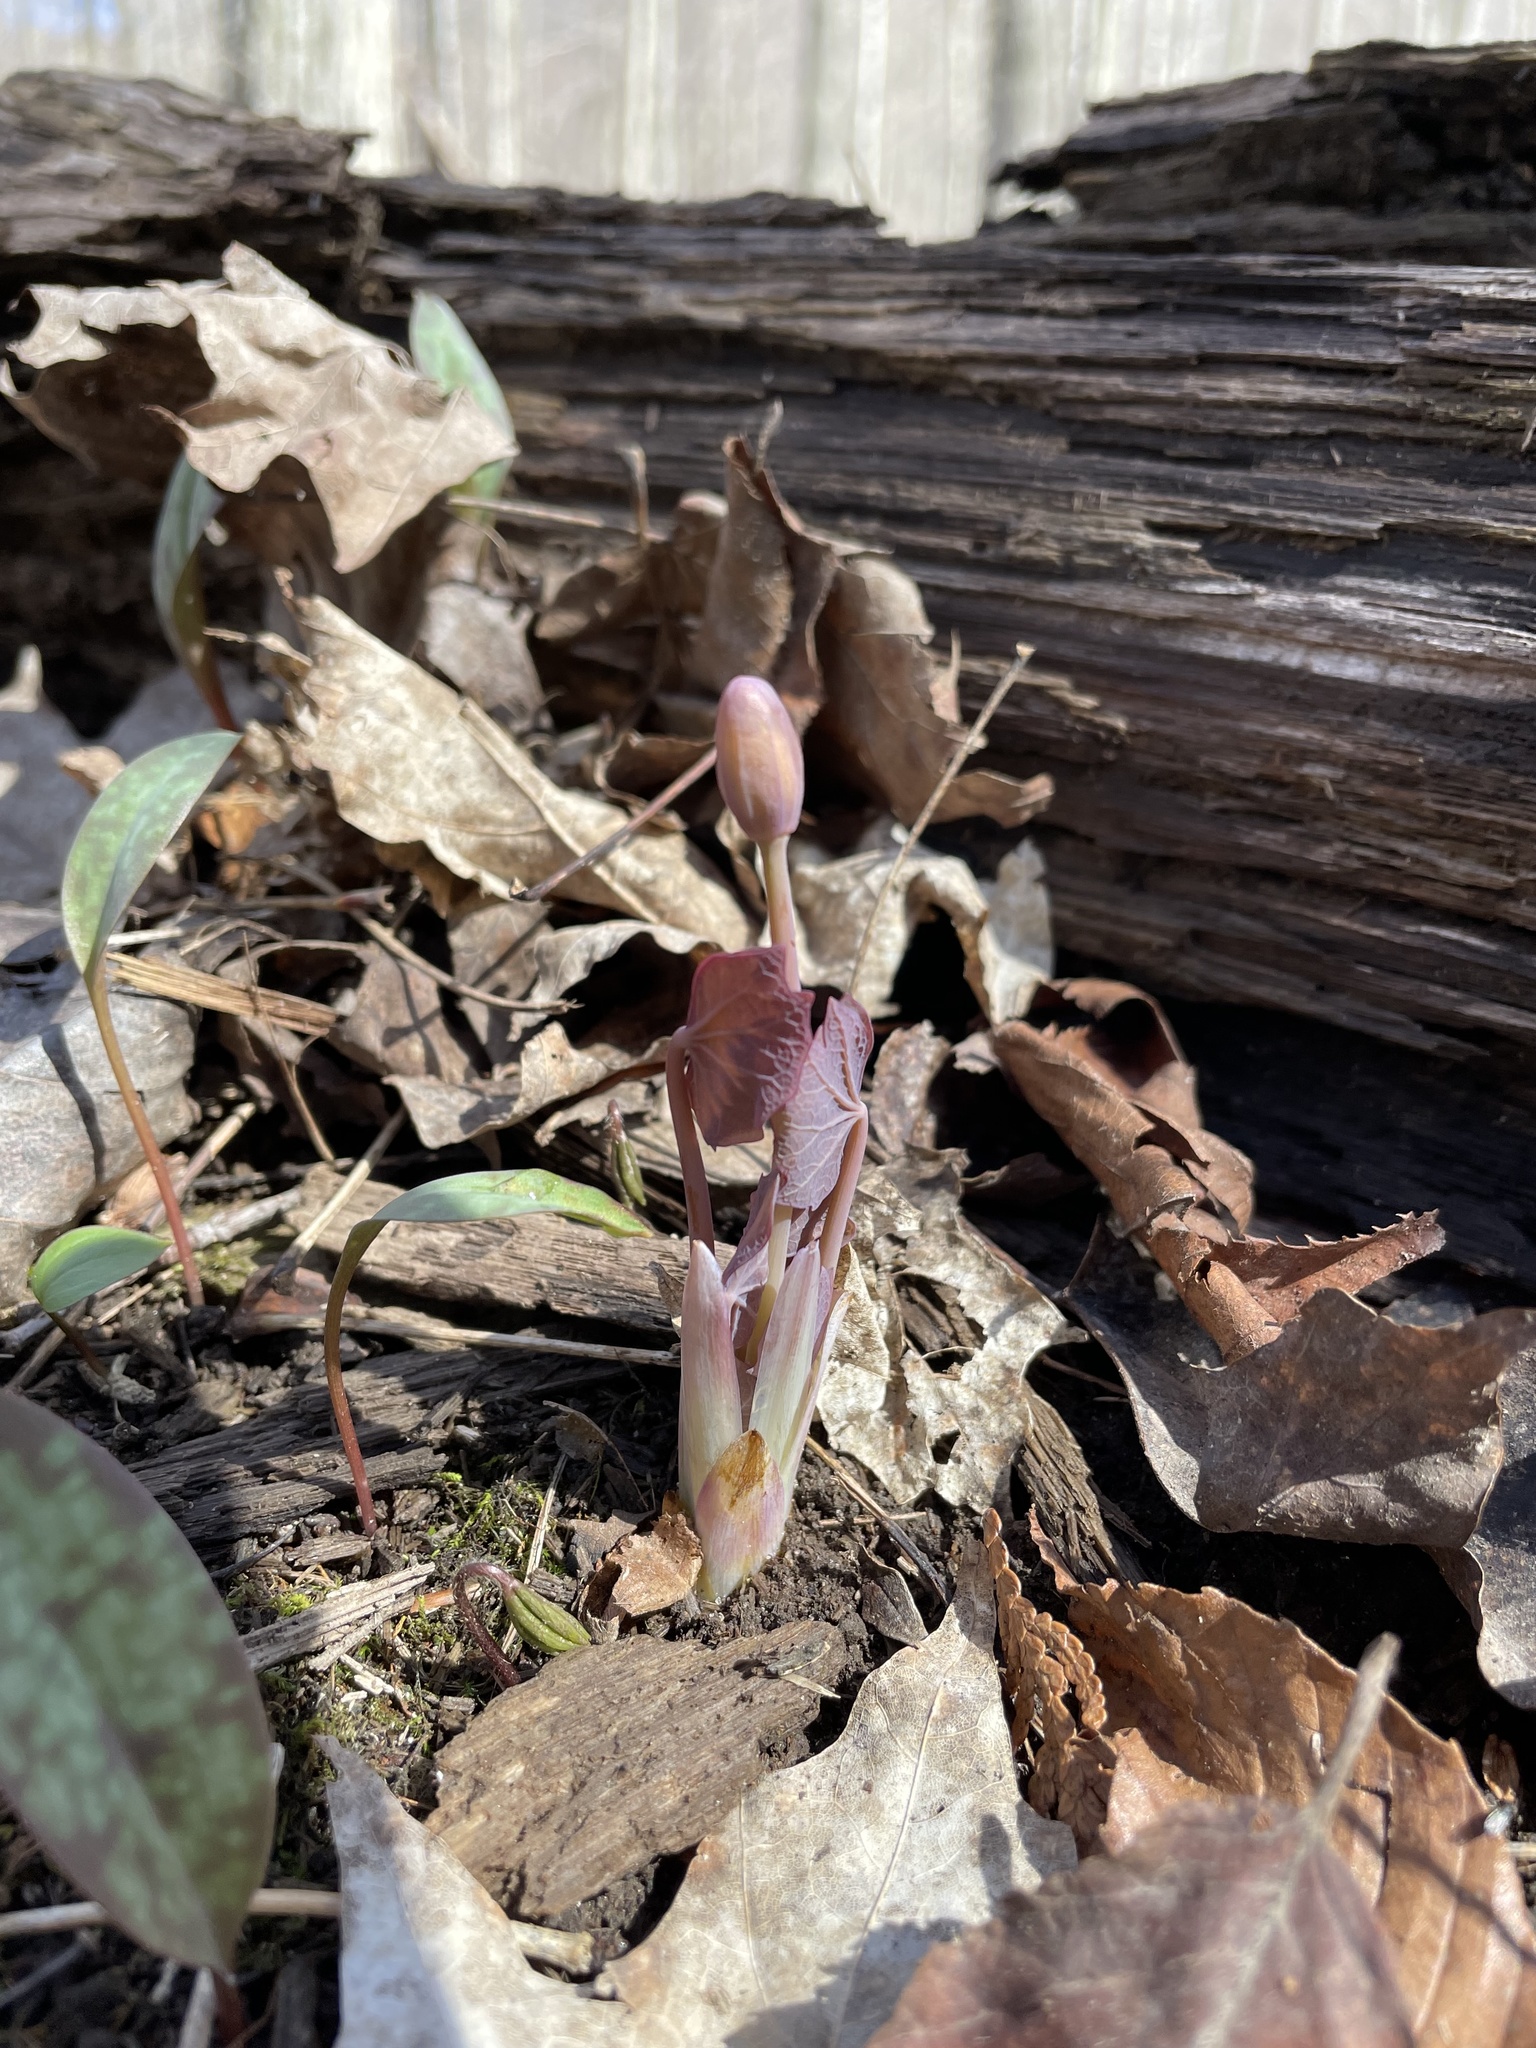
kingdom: Plantae
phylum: Tracheophyta
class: Magnoliopsida
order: Ranunculales
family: Berberidaceae
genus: Jeffersonia
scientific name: Jeffersonia diphylla
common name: Rheumatism-root
